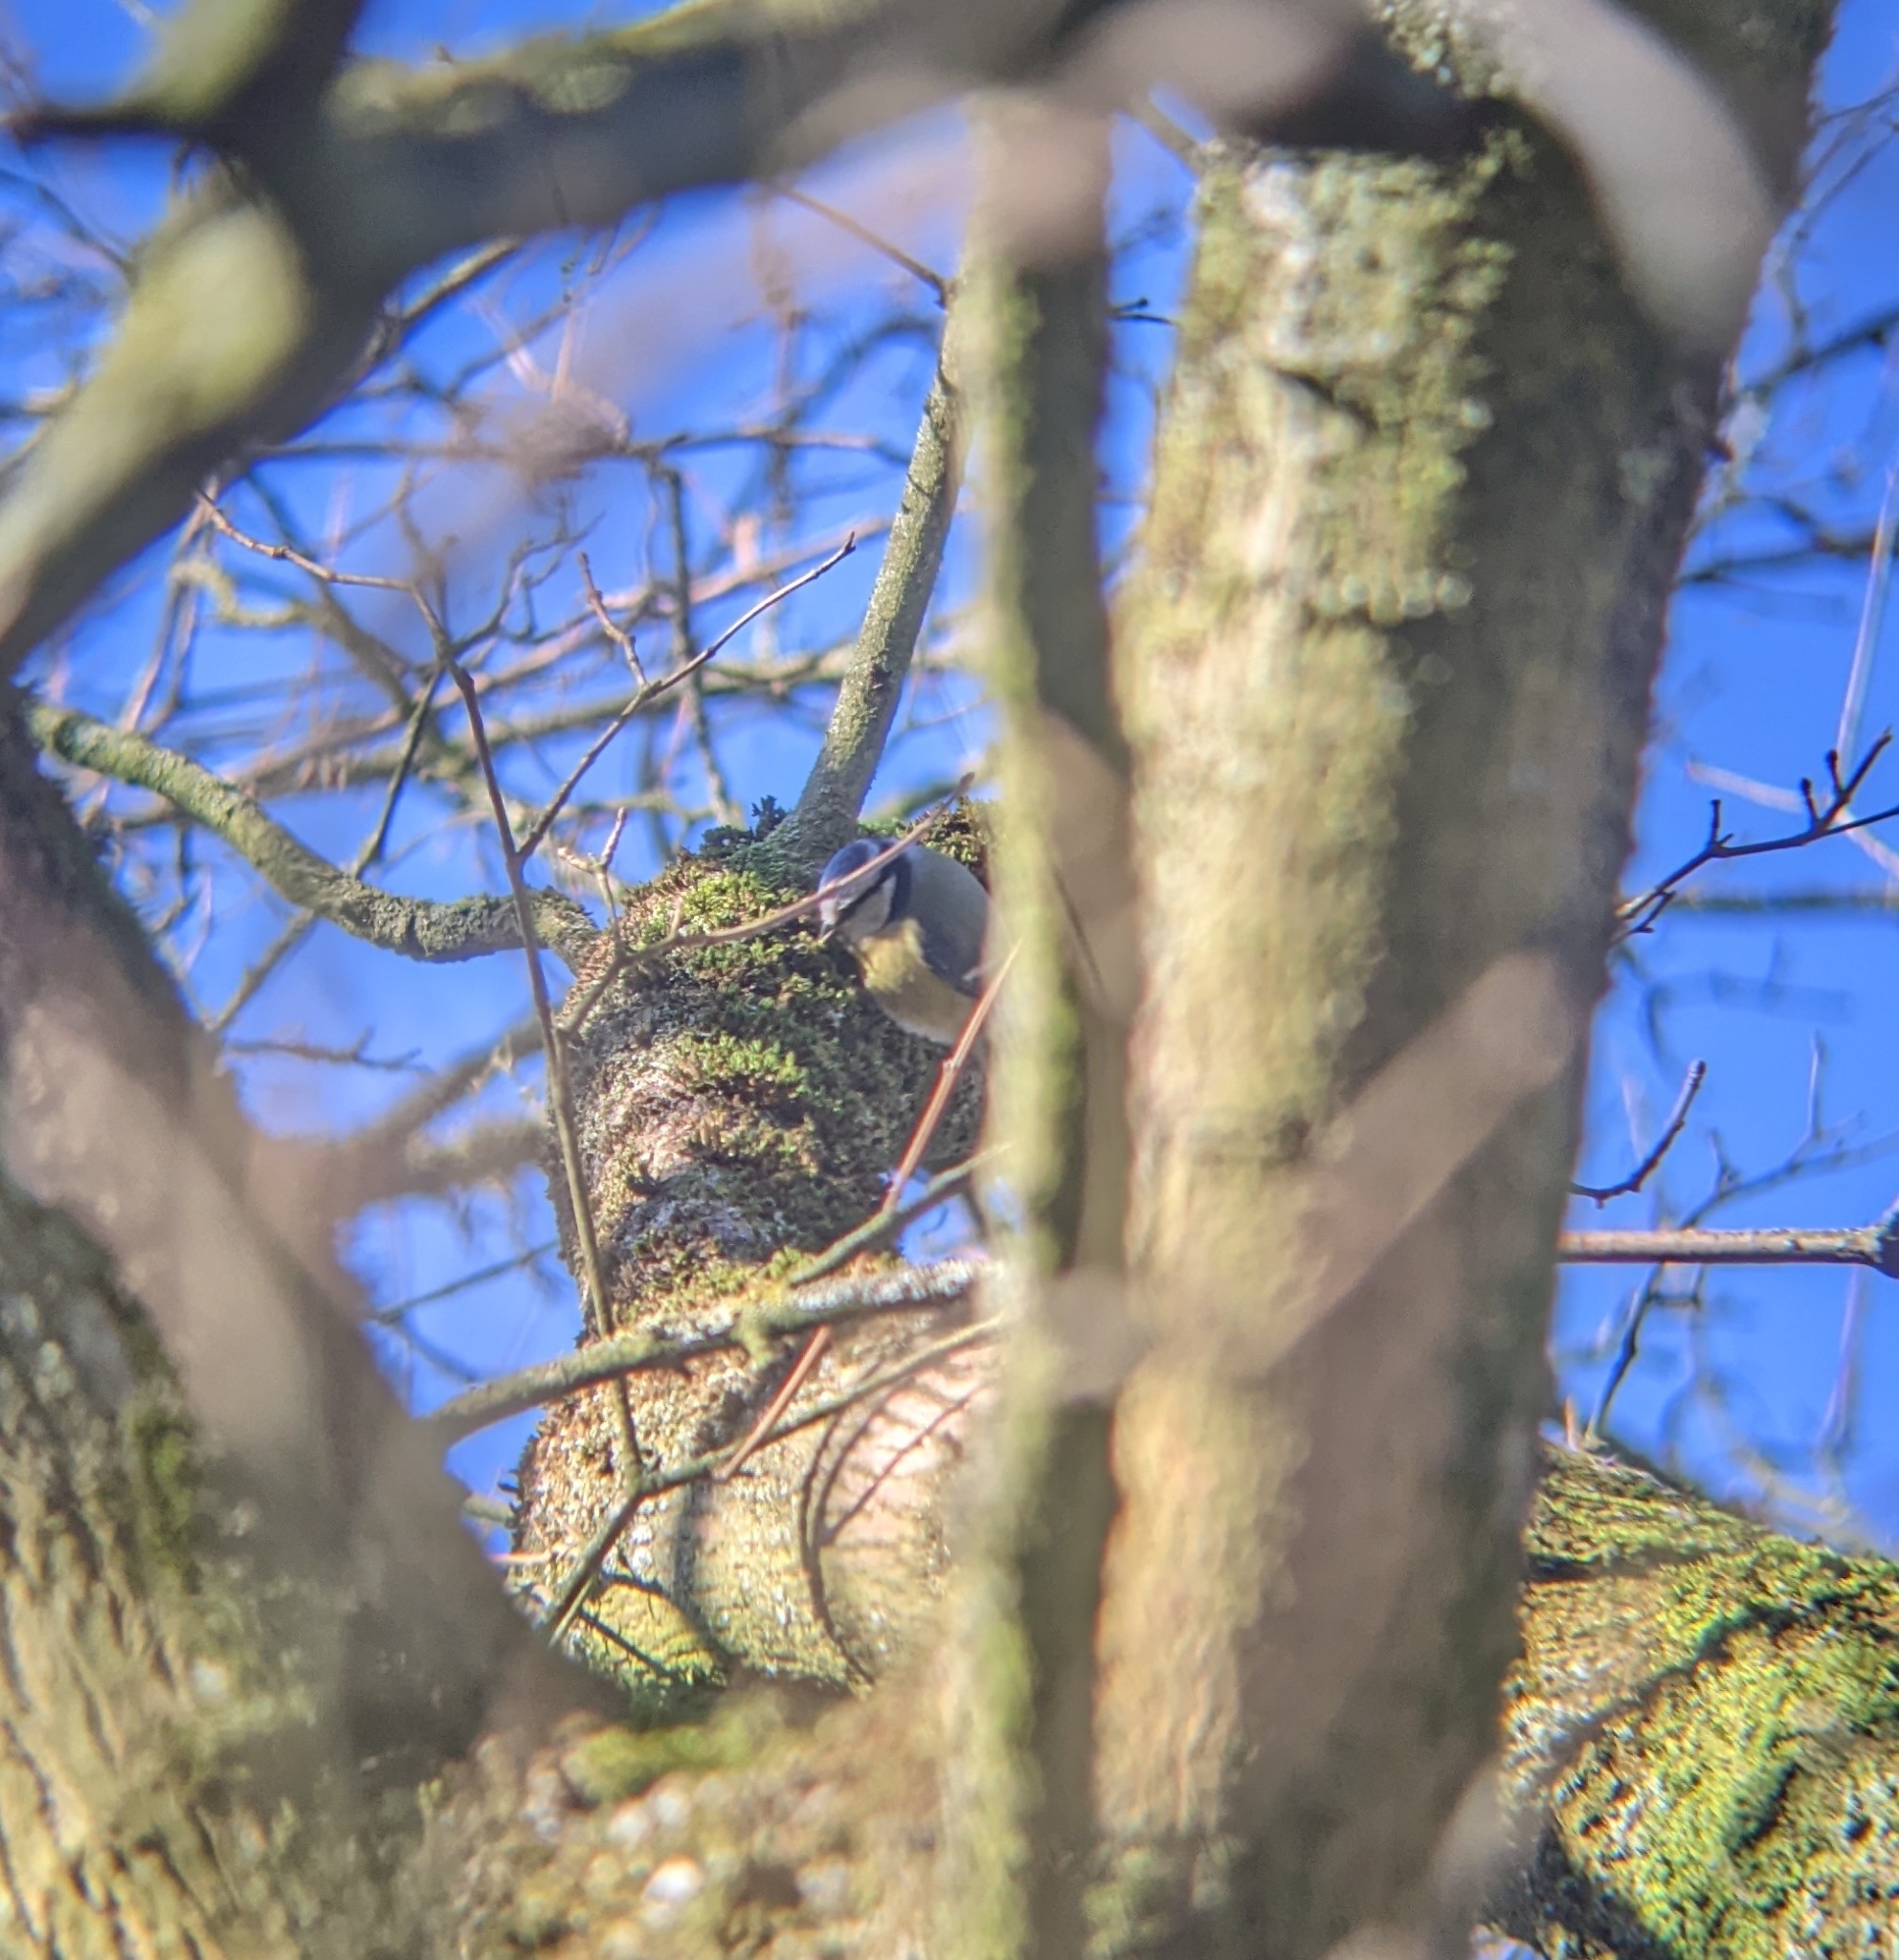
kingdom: Animalia
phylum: Chordata
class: Aves
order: Passeriformes
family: Paridae
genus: Cyanistes
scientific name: Cyanistes caeruleus
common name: Eurasian blue tit
